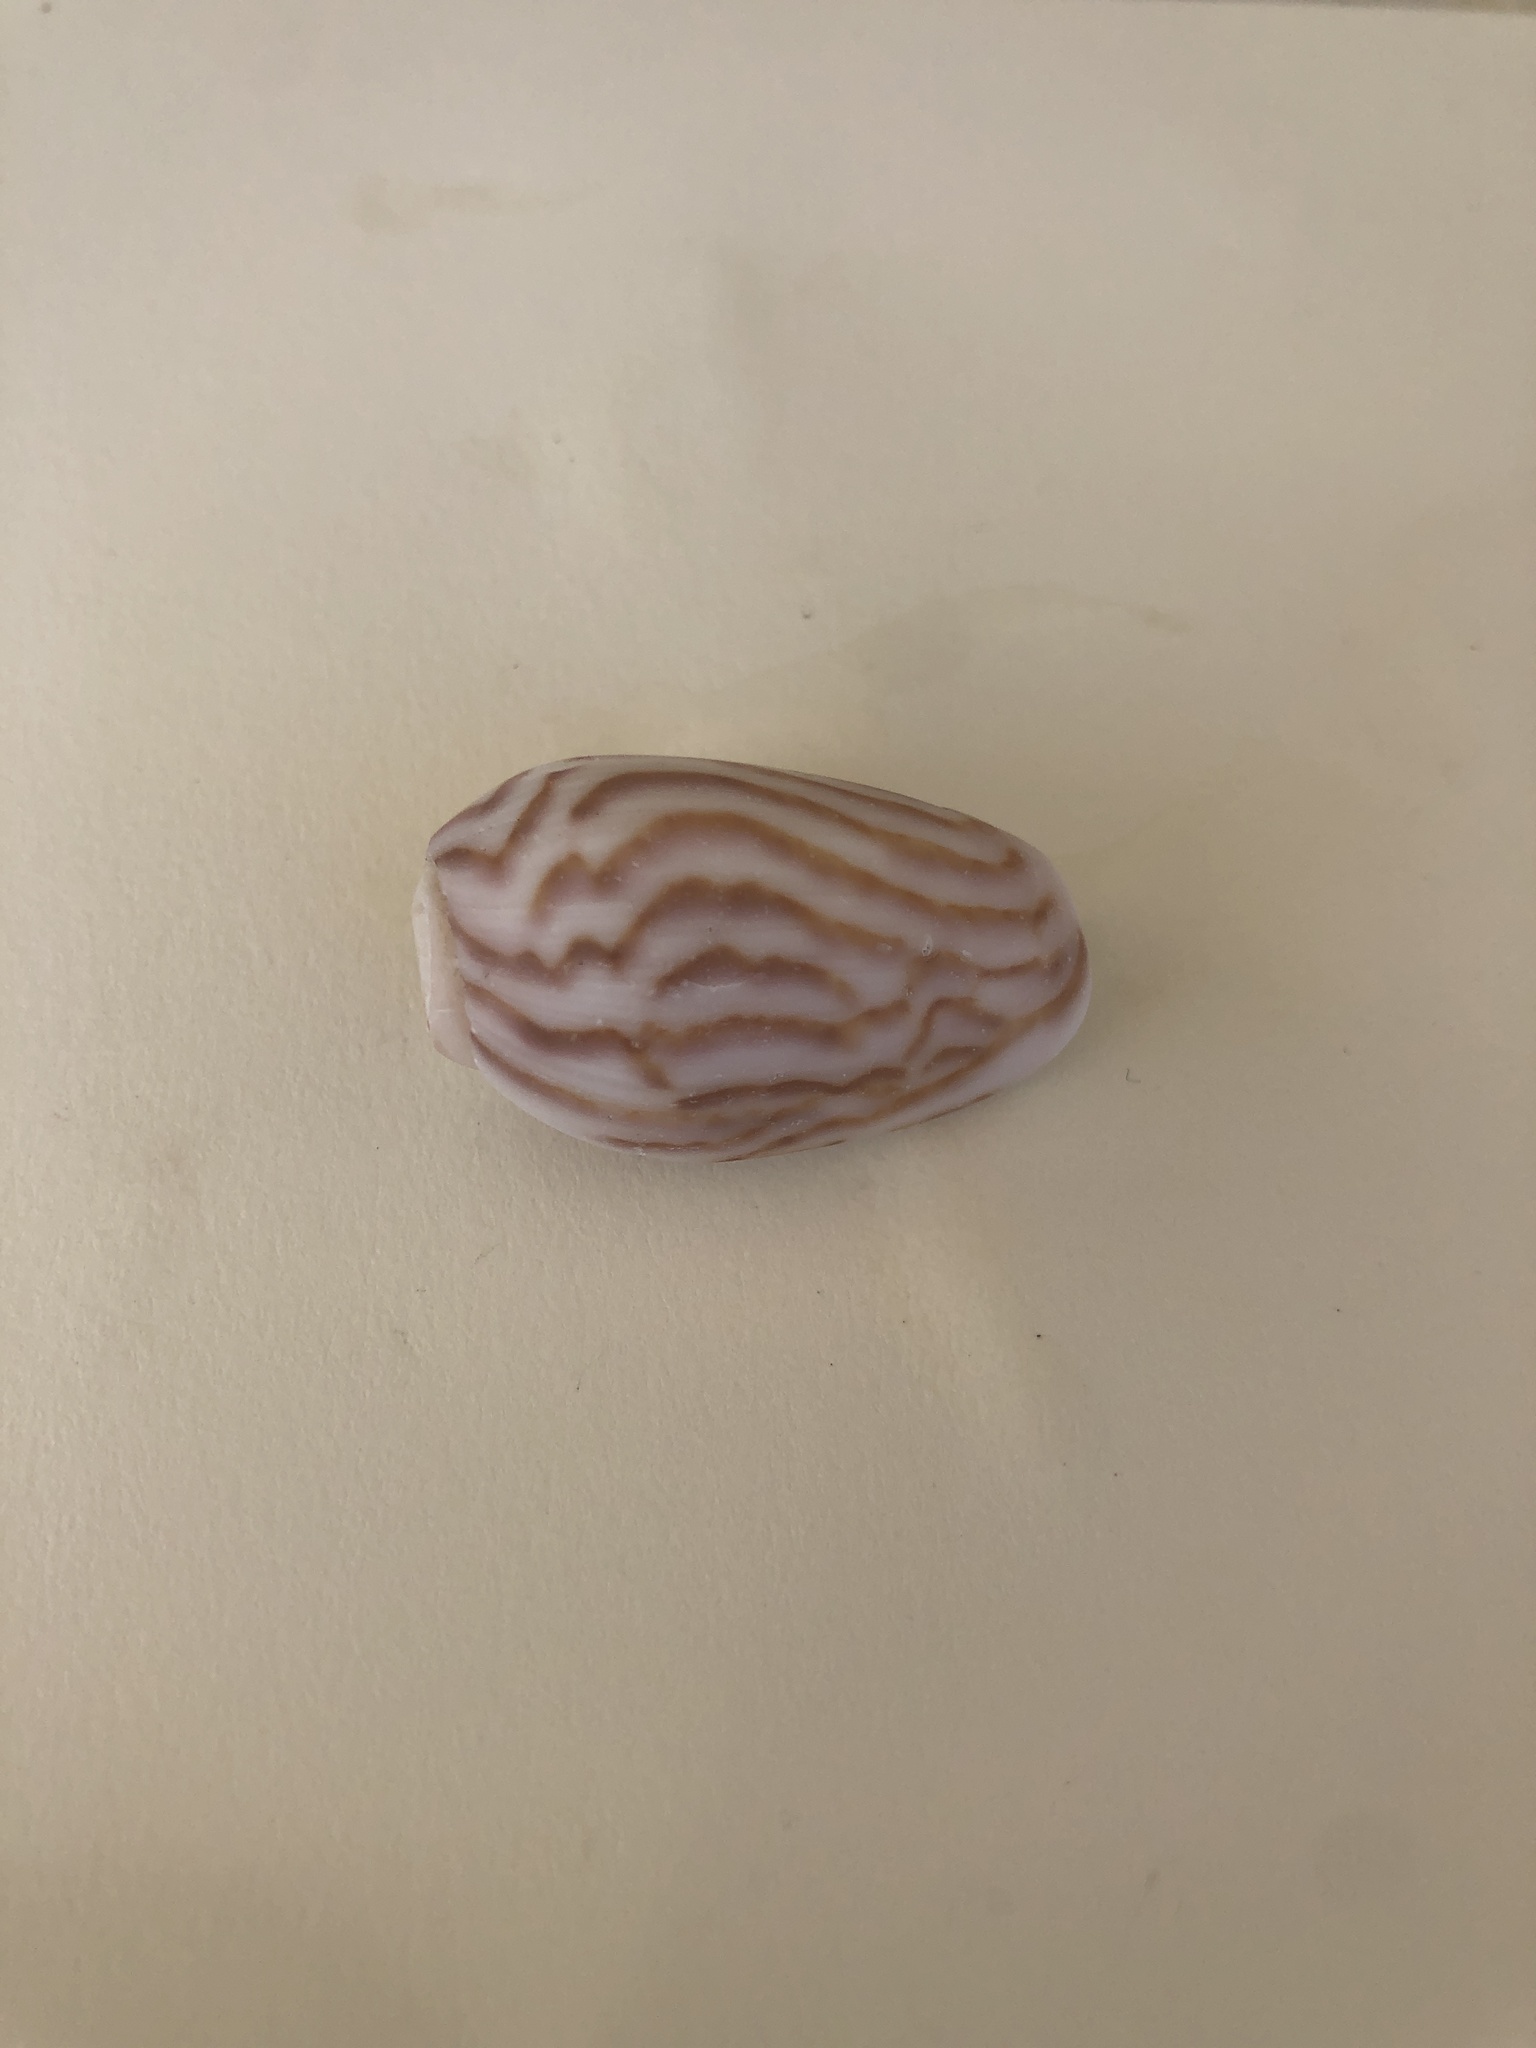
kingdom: Animalia
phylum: Mollusca
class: Gastropoda
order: Neogastropoda
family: Olividae
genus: Felicioliva
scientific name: Felicioliva peruviana
